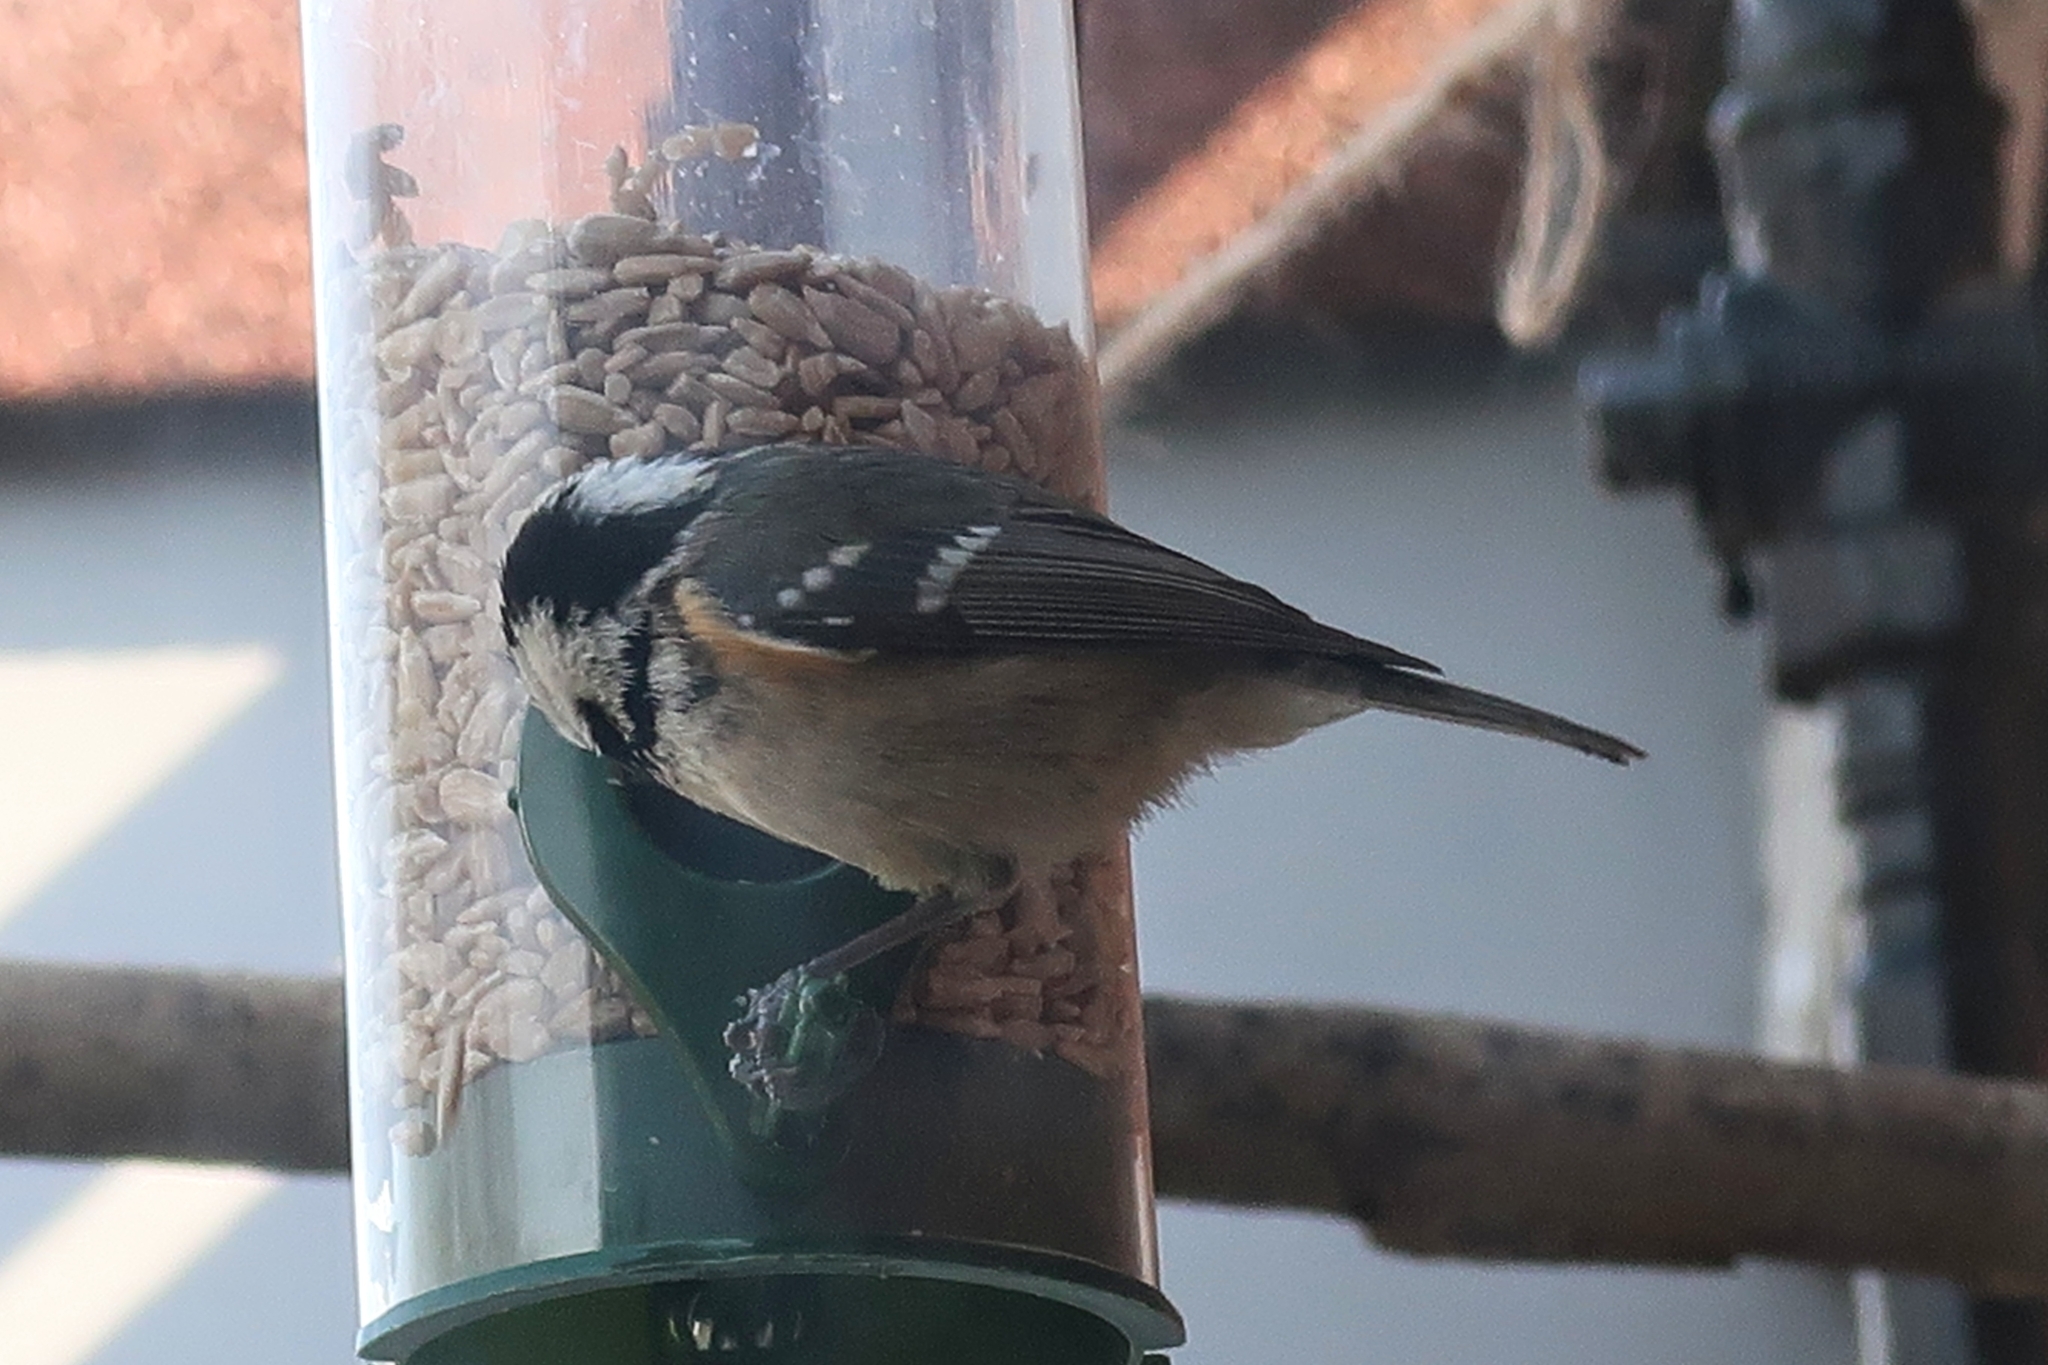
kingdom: Animalia
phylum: Chordata
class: Aves
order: Passeriformes
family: Paridae
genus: Periparus
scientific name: Periparus ater
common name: Coal tit
